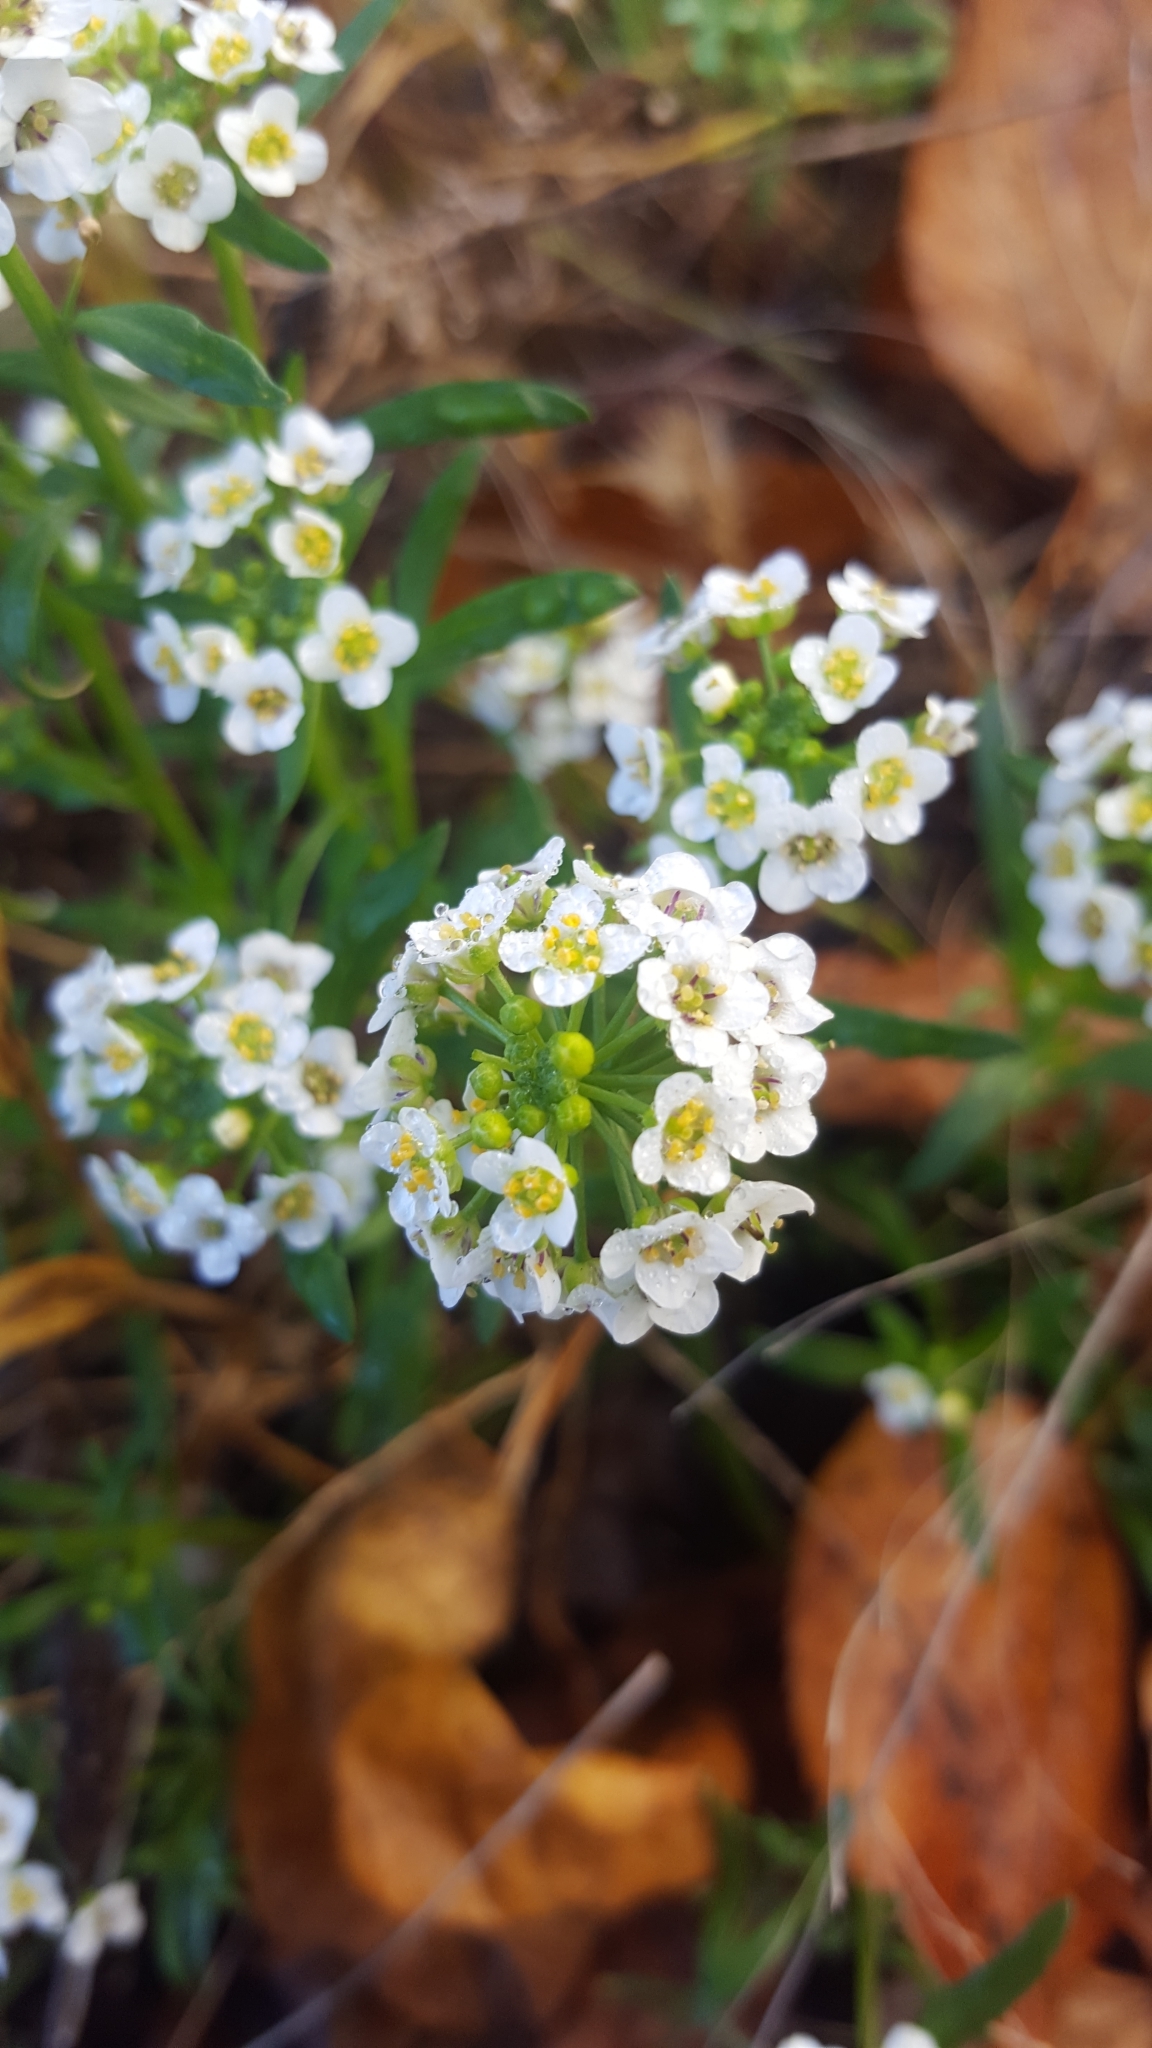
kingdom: Plantae
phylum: Tracheophyta
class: Magnoliopsida
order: Brassicales
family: Brassicaceae
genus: Lobularia
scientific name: Lobularia maritima
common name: Sweet alison
